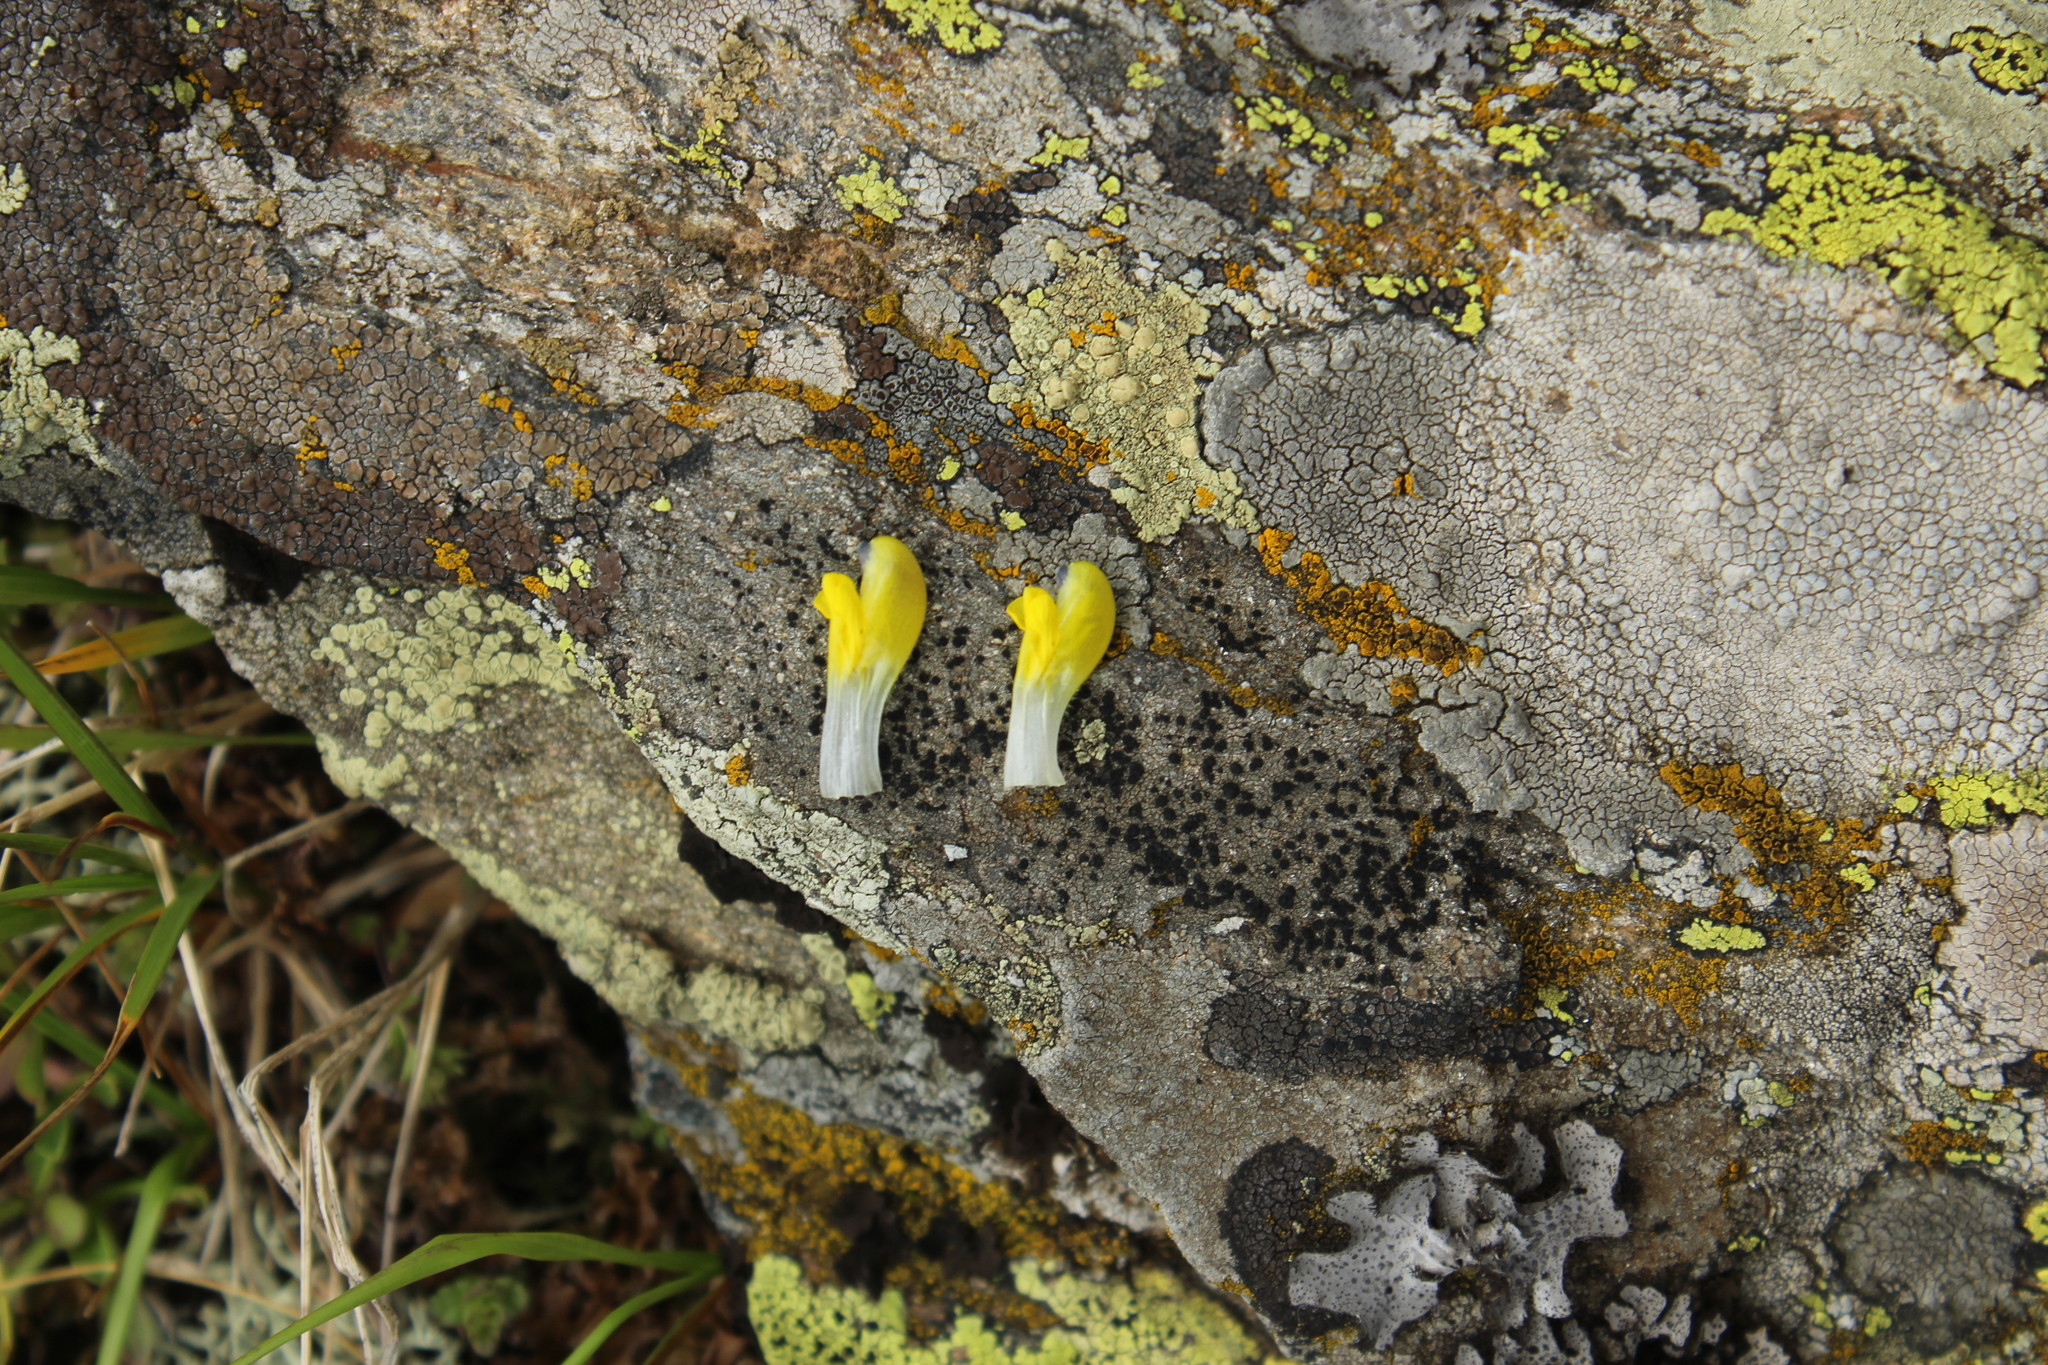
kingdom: Plantae
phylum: Tracheophyta
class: Magnoliopsida
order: Lamiales
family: Orobanchaceae
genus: Rhinanthus
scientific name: Rhinanthus minor
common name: Yellow-rattle
